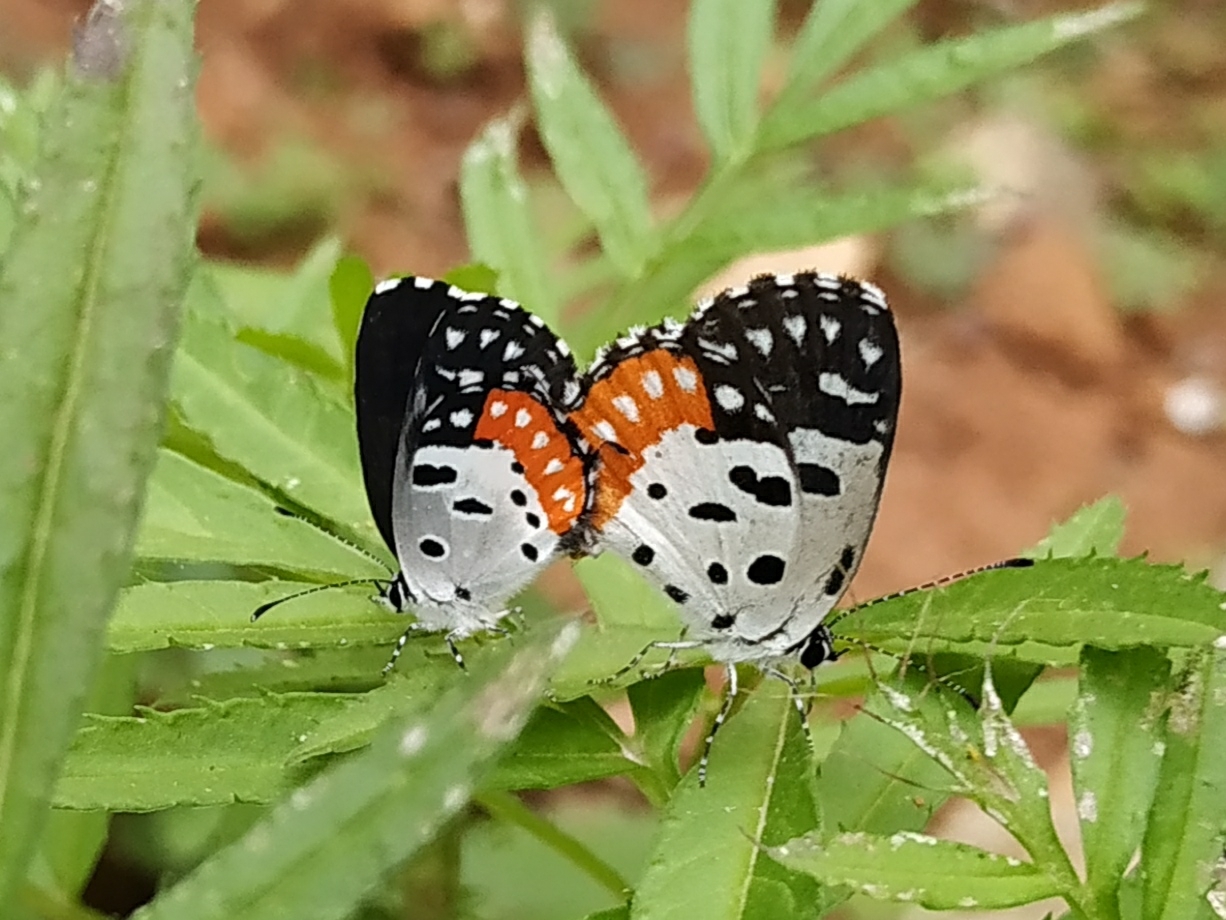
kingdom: Animalia
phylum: Arthropoda
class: Insecta
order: Lepidoptera
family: Lycaenidae
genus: Talicada
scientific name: Talicada nyseus
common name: Red pierrot
